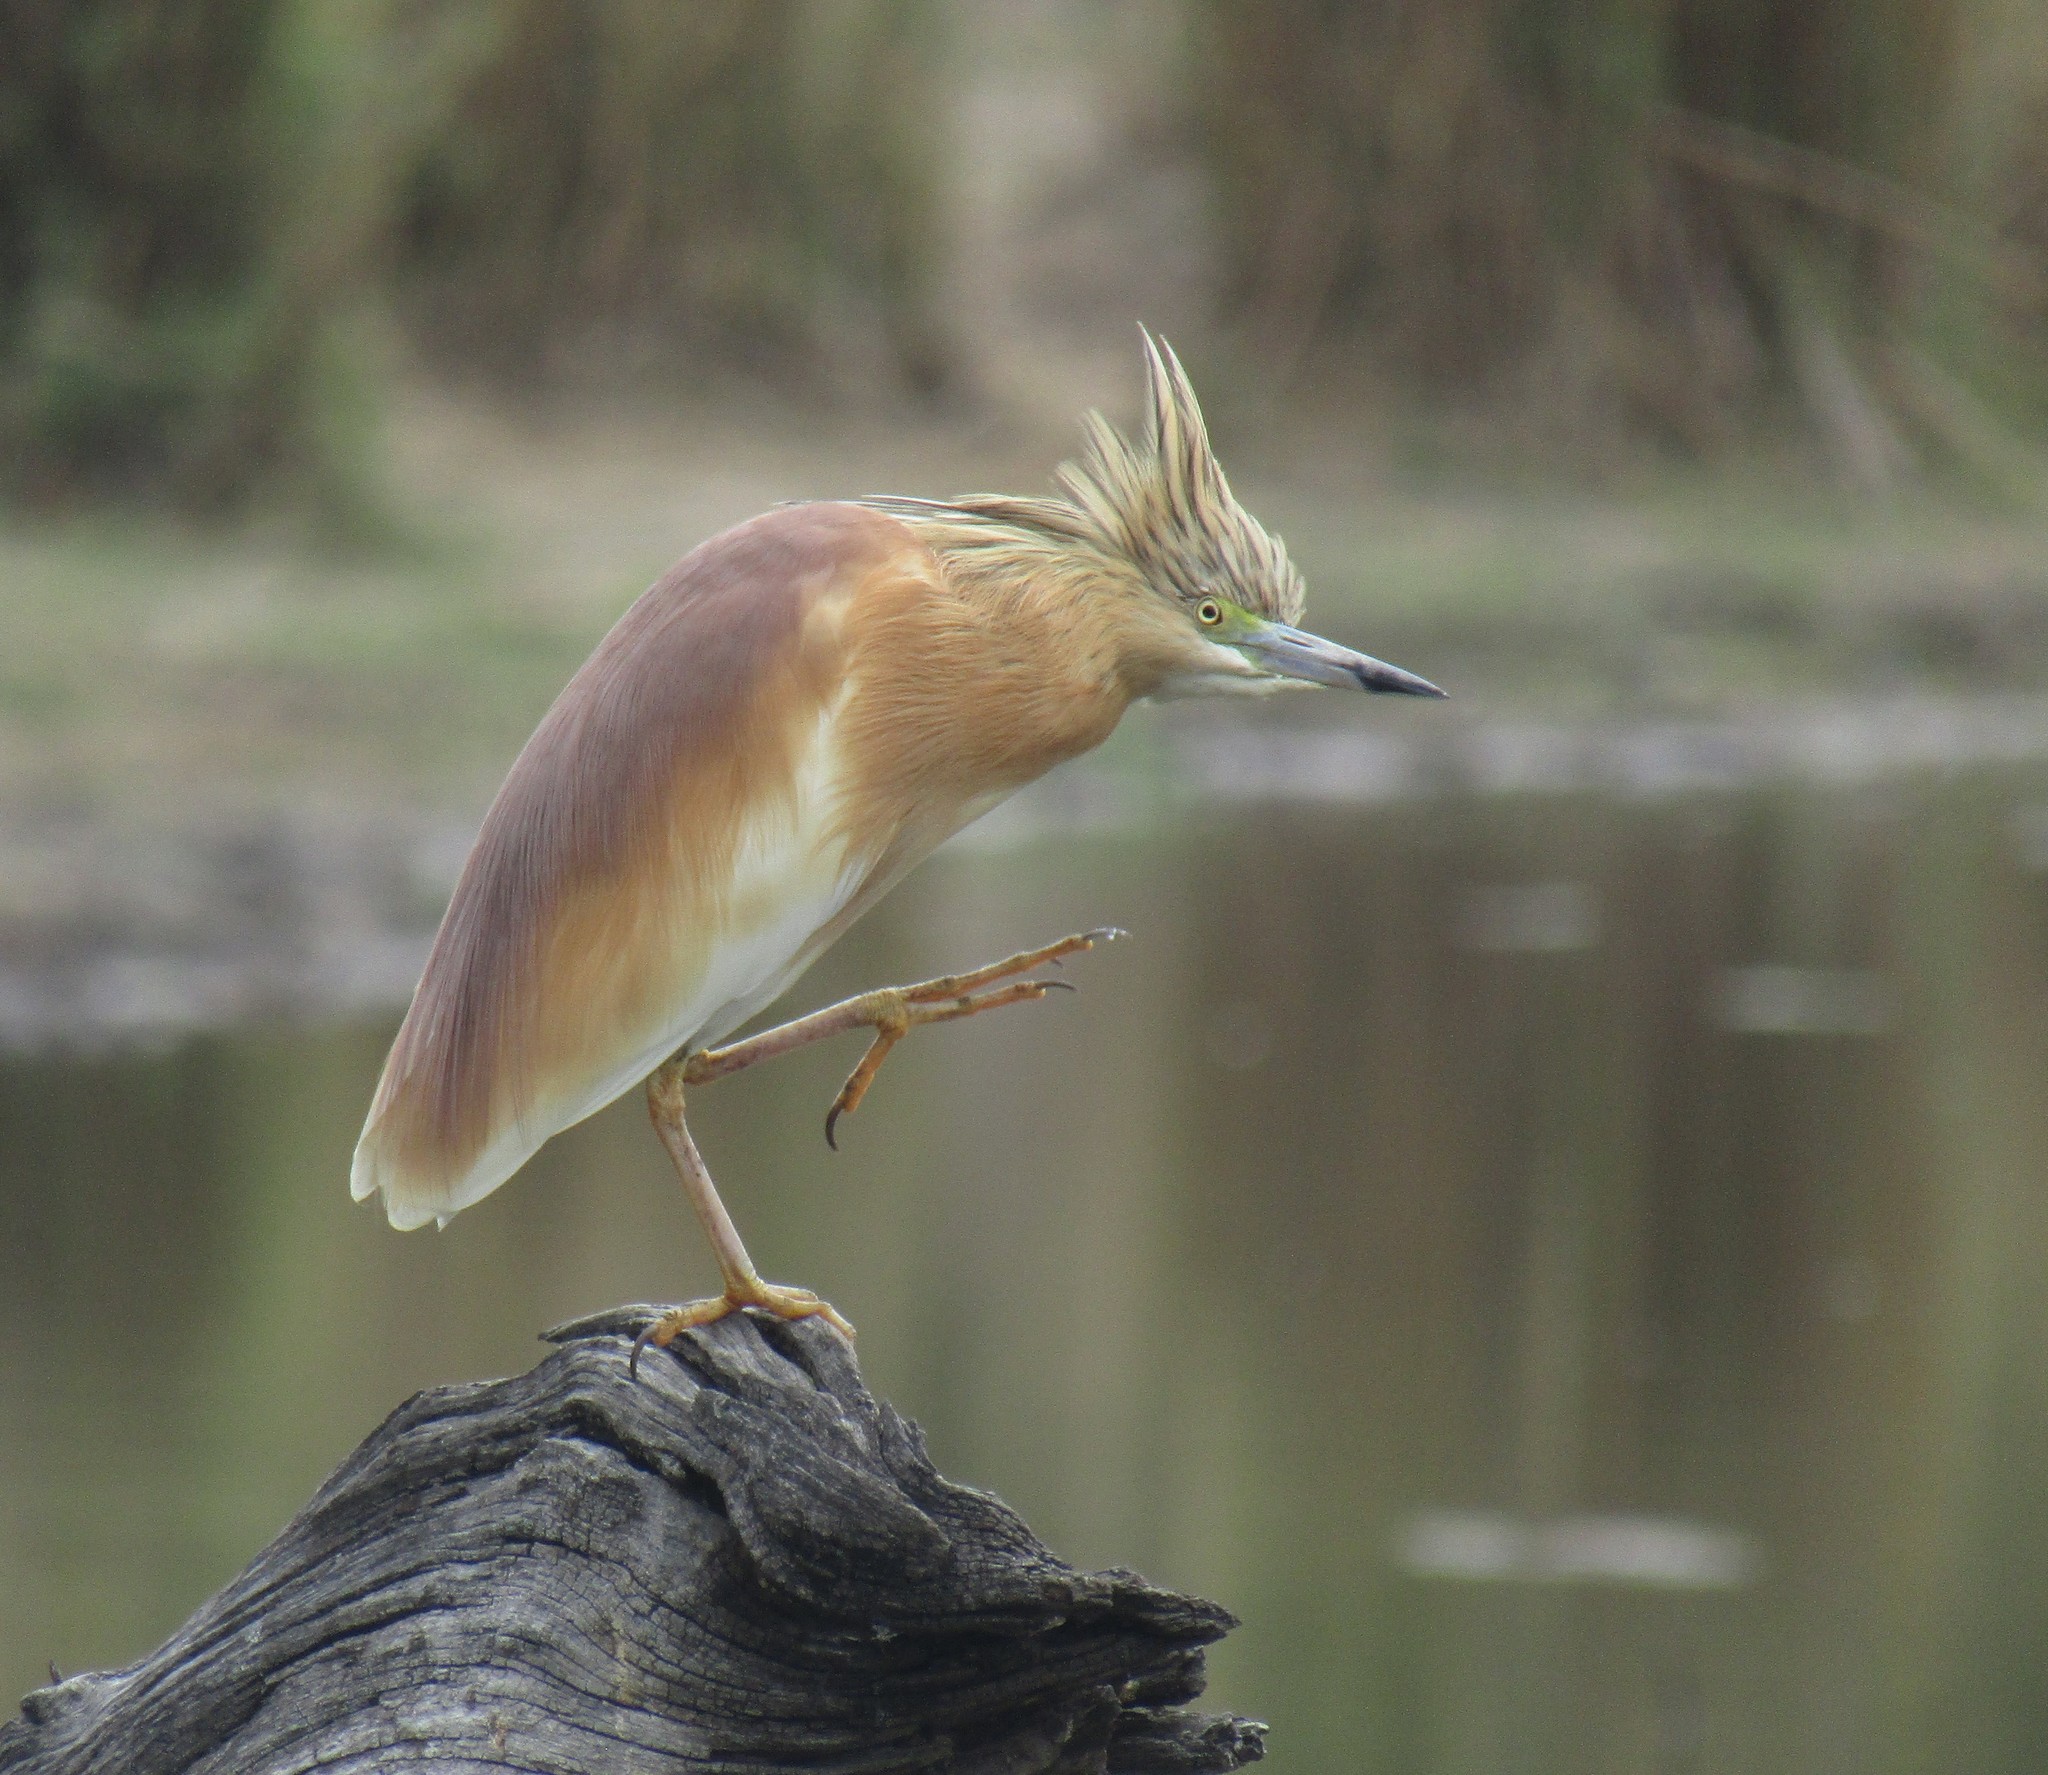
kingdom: Animalia
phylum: Chordata
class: Aves
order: Pelecaniformes
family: Ardeidae
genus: Ardeola
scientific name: Ardeola ralloides
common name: Squacco heron
